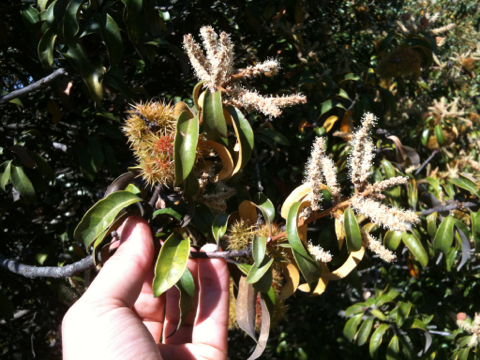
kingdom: Plantae
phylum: Tracheophyta
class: Magnoliopsida
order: Fagales
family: Fagaceae
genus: Chrysolepis
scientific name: Chrysolepis chrysophylla
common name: Giant chinquapin
